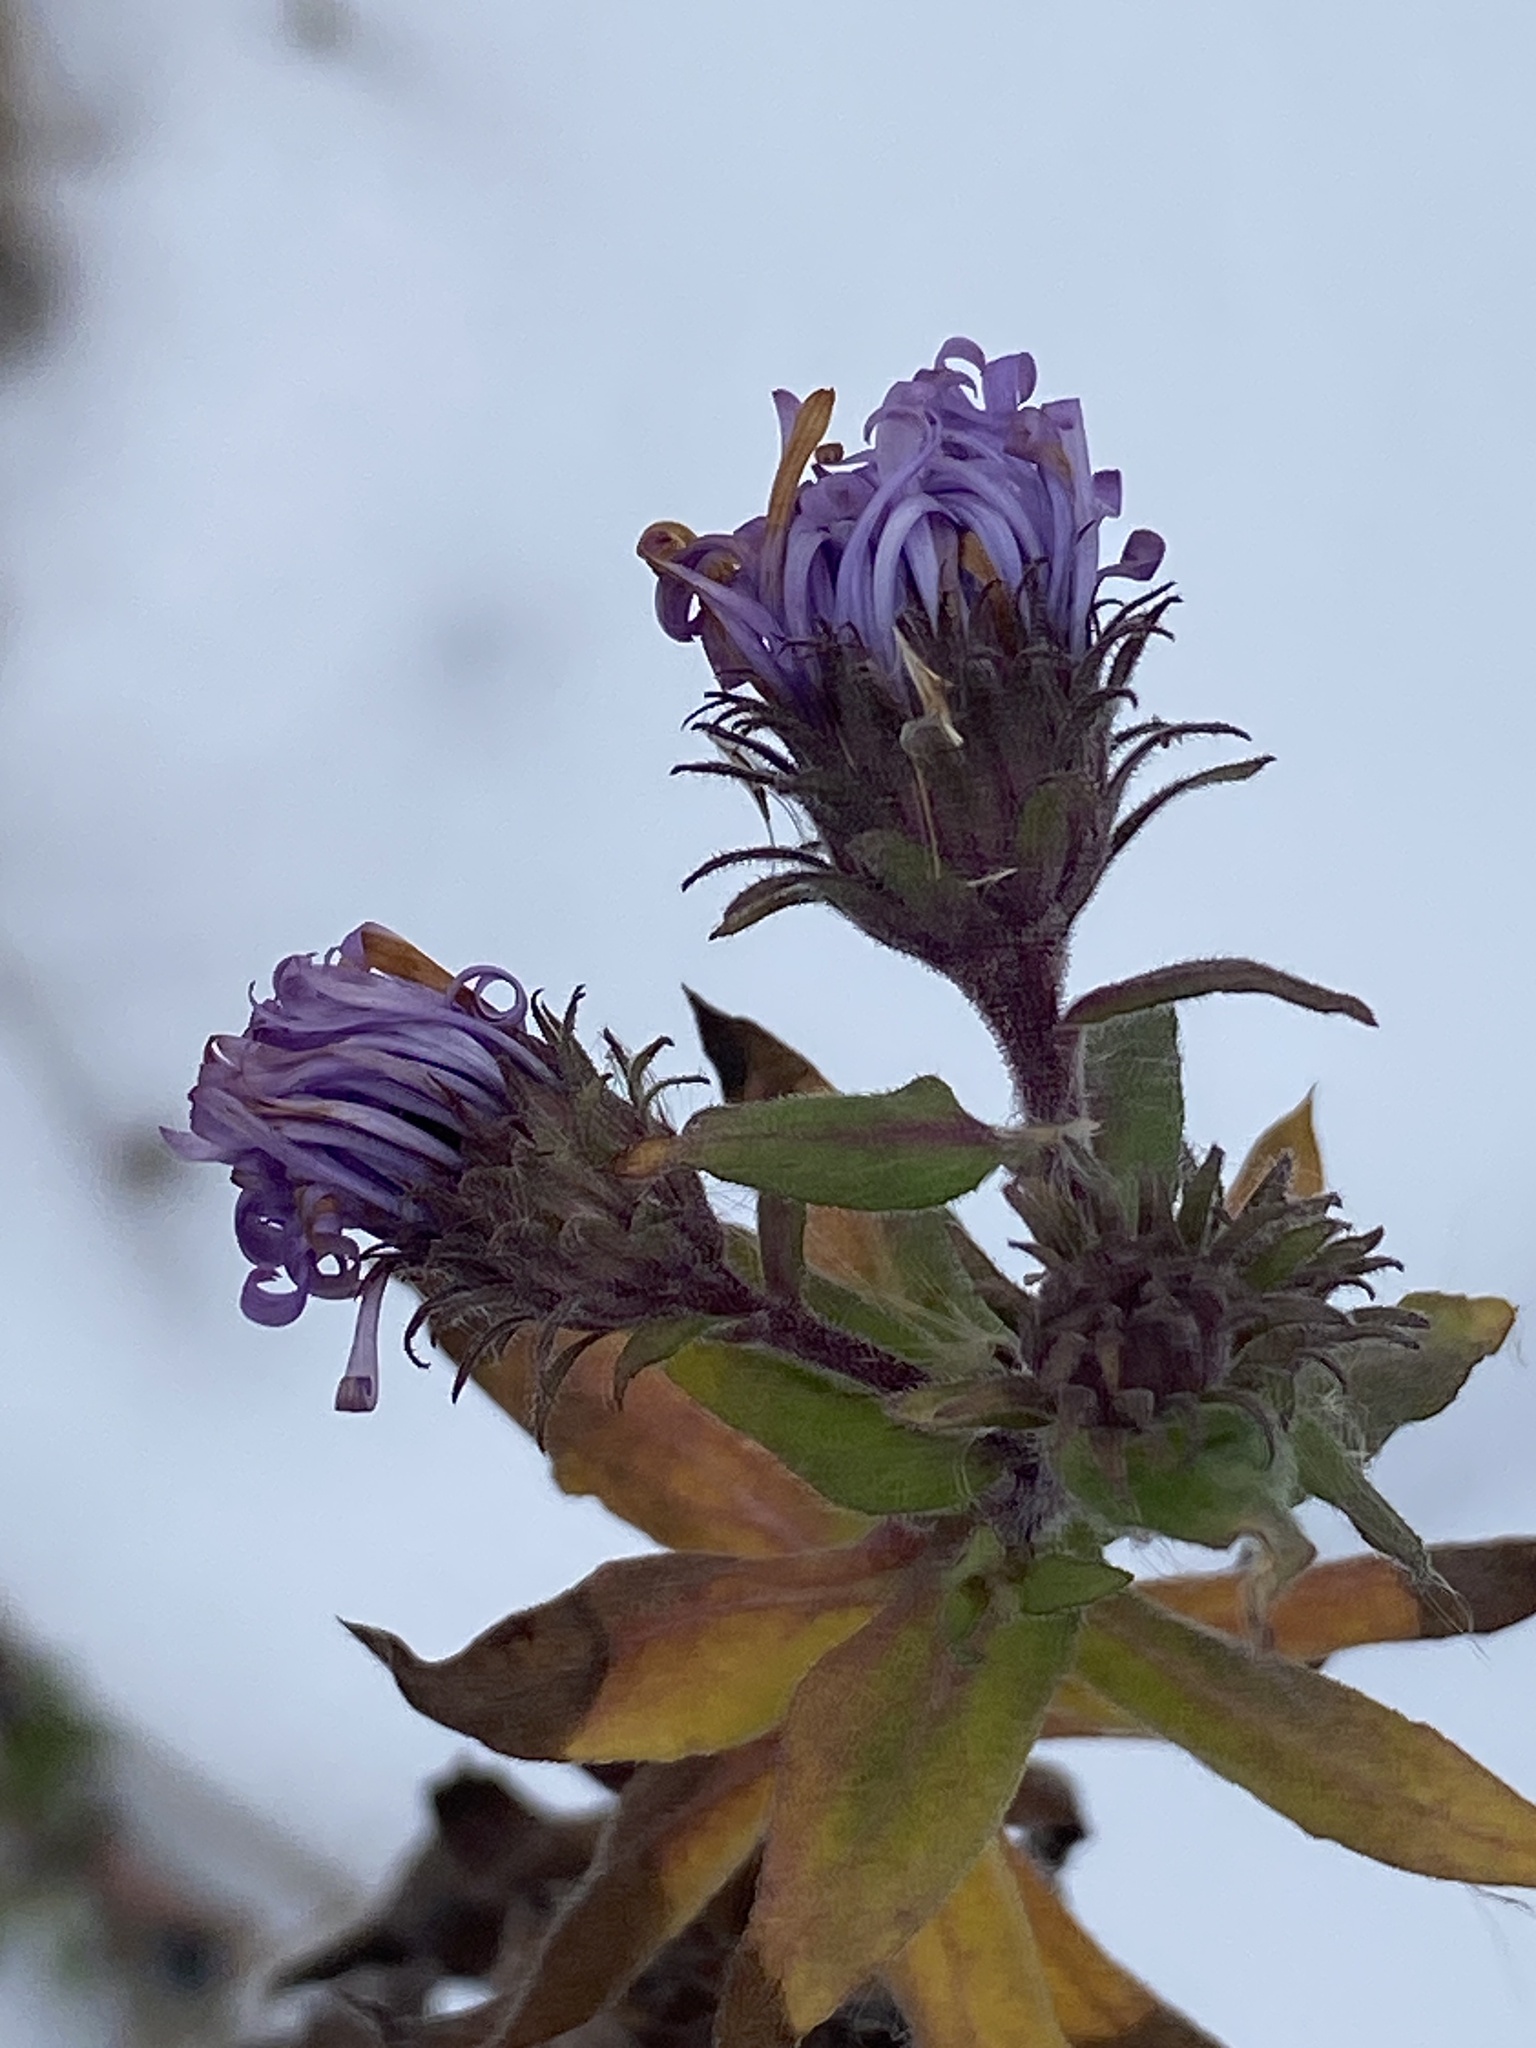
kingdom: Plantae
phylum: Tracheophyta
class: Magnoliopsida
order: Asterales
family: Asteraceae
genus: Symphyotrichum
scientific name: Symphyotrichum novae-angliae
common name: Michaelmas daisy
